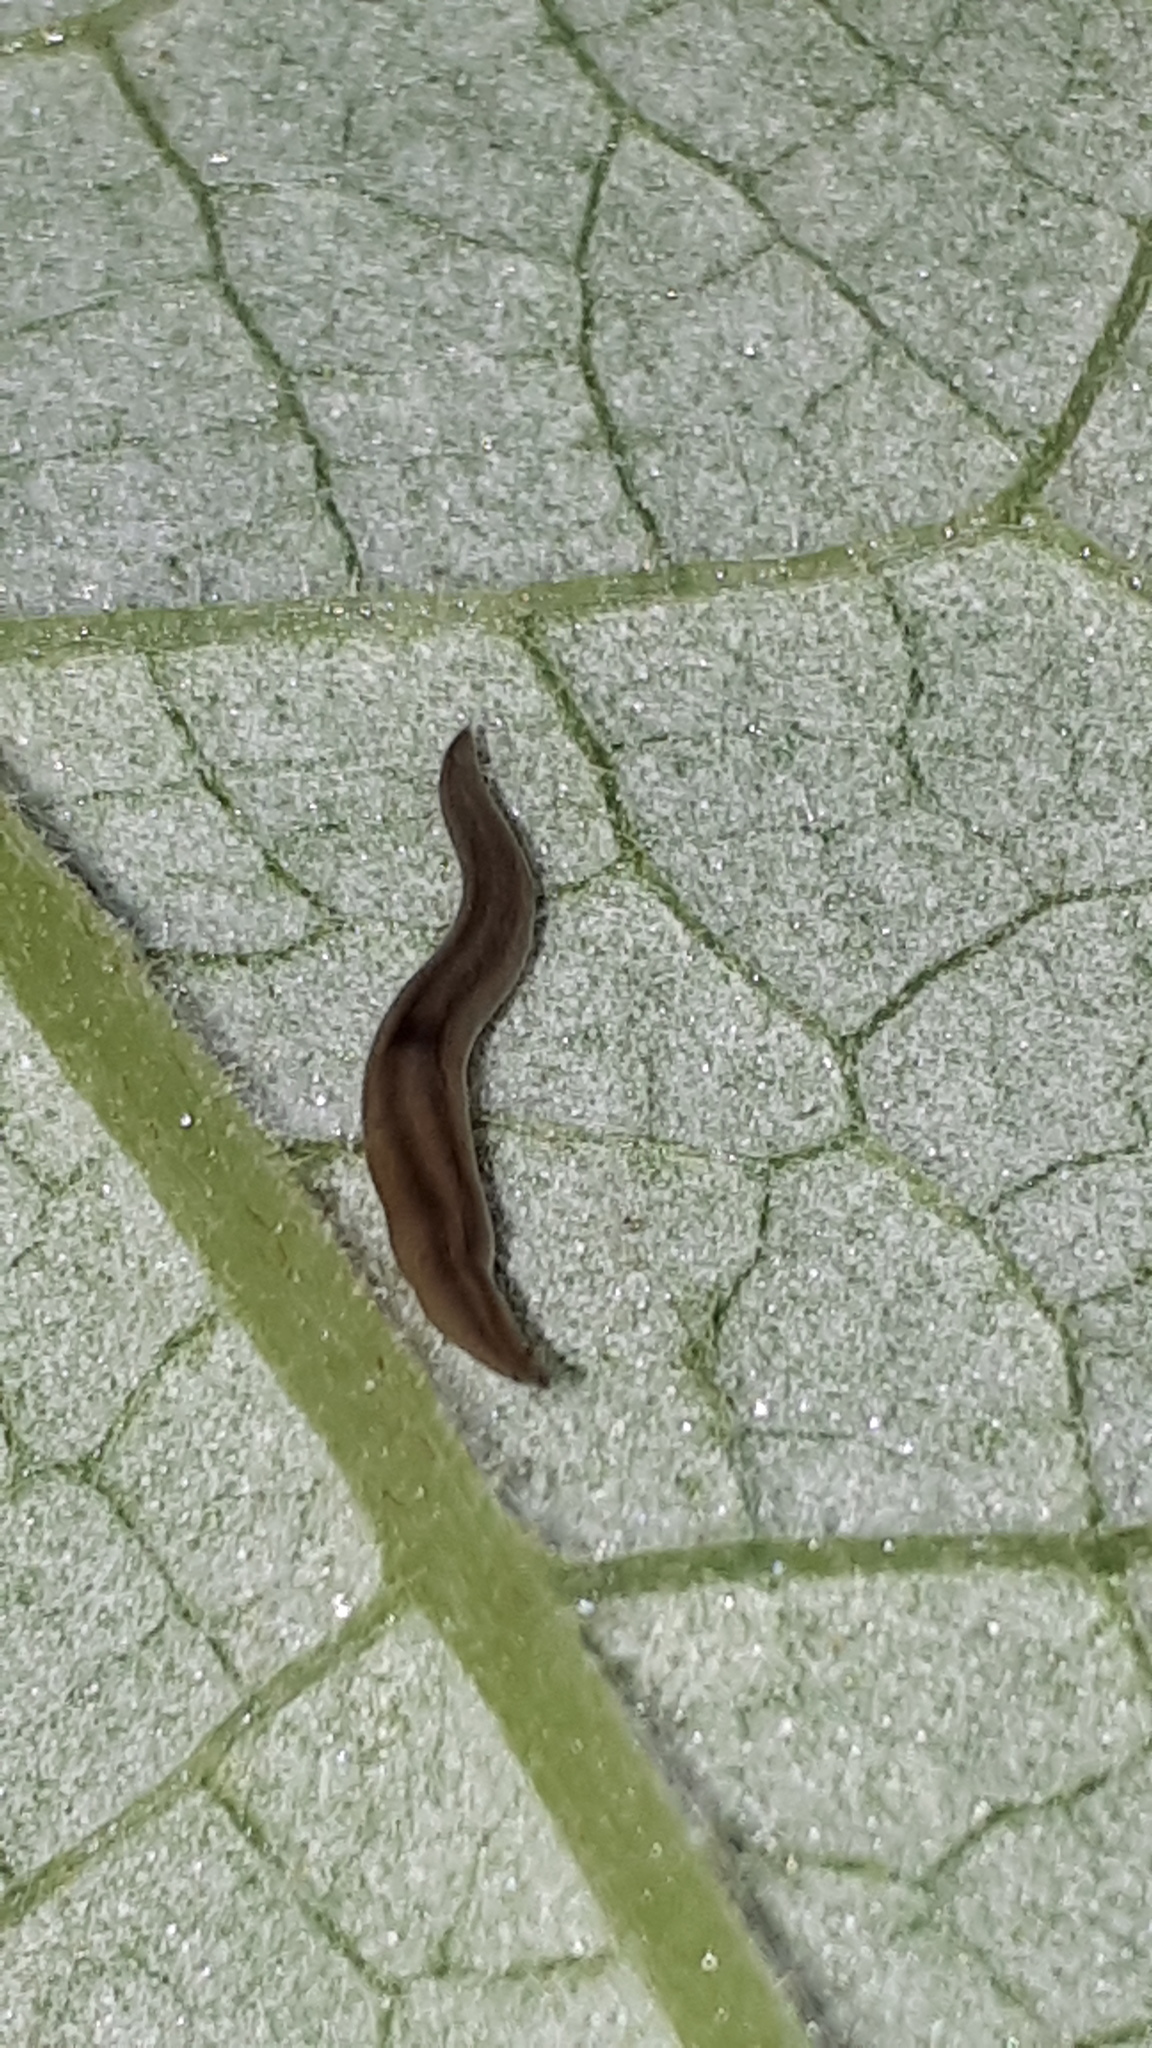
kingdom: Animalia
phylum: Platyhelminthes
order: Tricladida
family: Geoplanidae
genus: Rhynchodemus
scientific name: Rhynchodemus sylvaticus
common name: A flatworm
